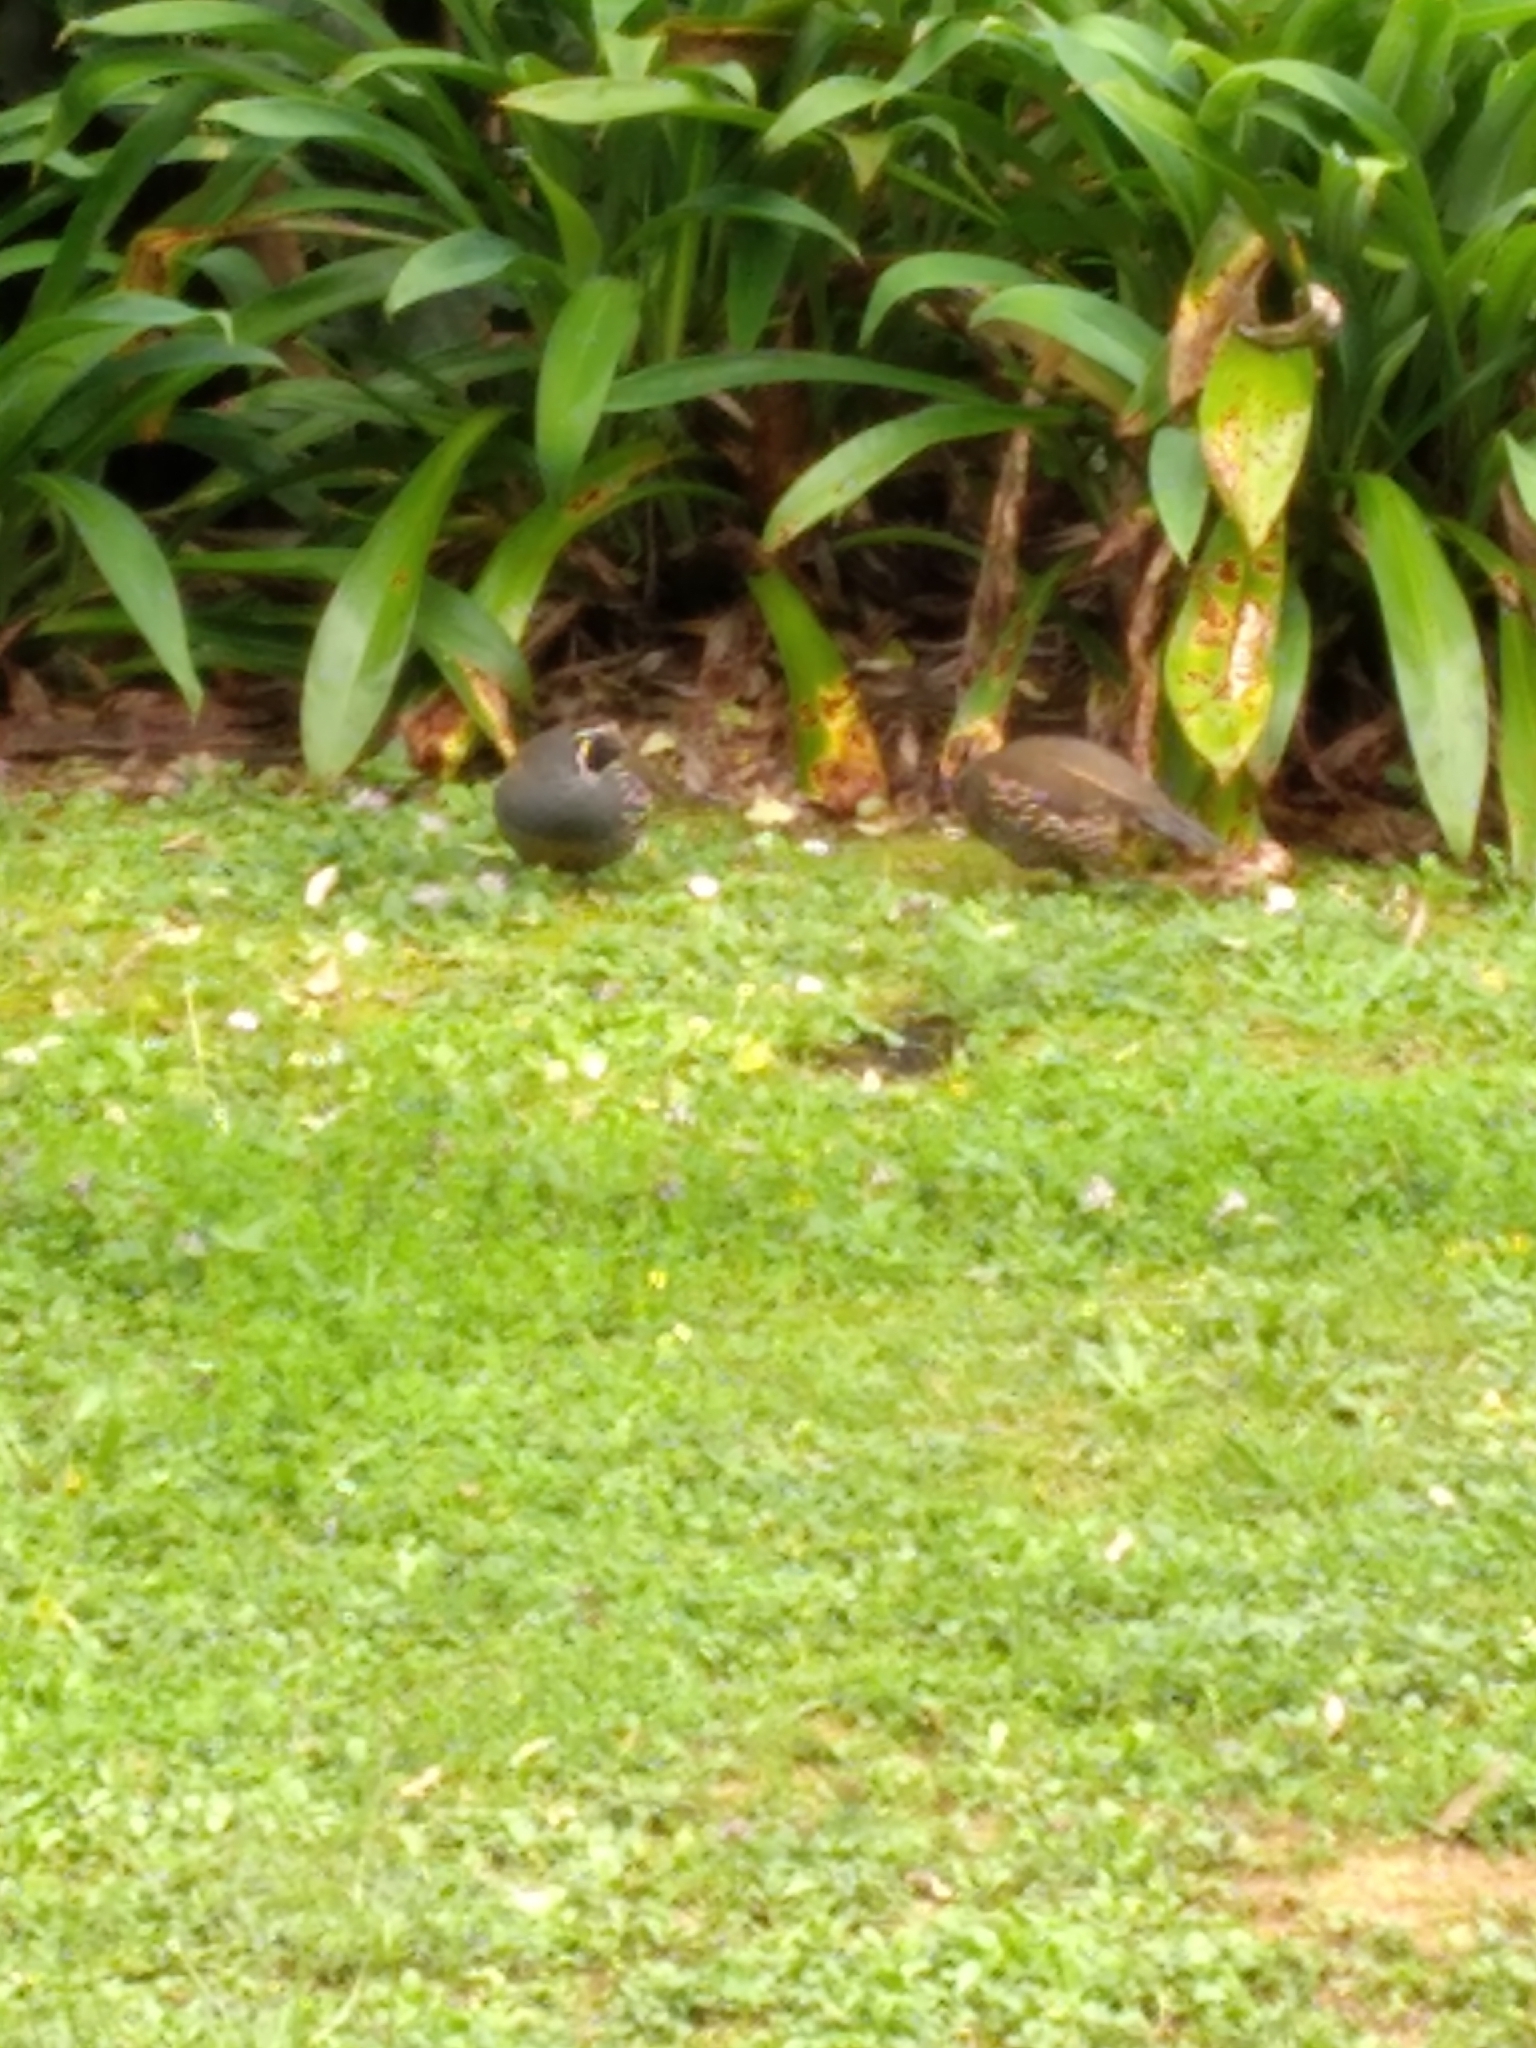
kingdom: Animalia
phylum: Chordata
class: Aves
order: Galliformes
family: Odontophoridae
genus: Callipepla
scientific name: Callipepla californica
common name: California quail
